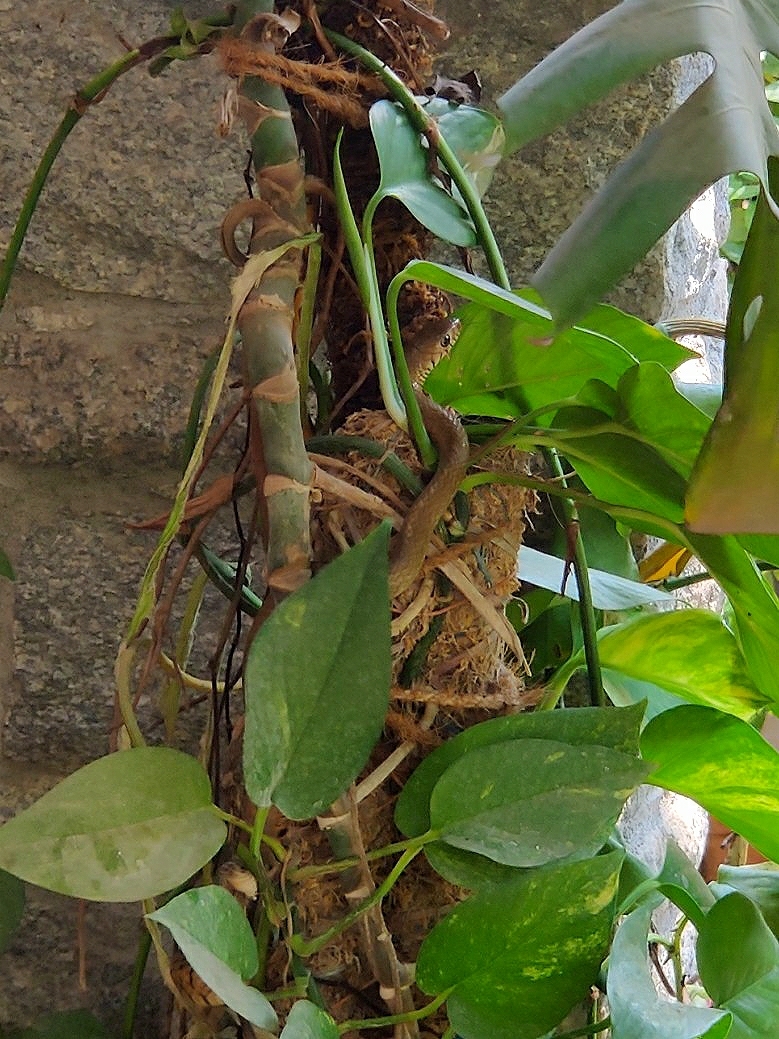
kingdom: Animalia
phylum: Chordata
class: Squamata
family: Colubridae
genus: Ptyas
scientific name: Ptyas mucosa
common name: Oriental ratsnake
